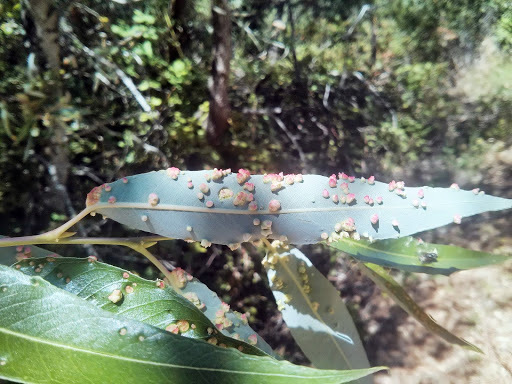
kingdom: Animalia
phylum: Arthropoda
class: Arachnida
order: Trombidiformes
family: Eriophyidae
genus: Aculus
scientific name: Aculus tetanothrix
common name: Willow bead gall mite
